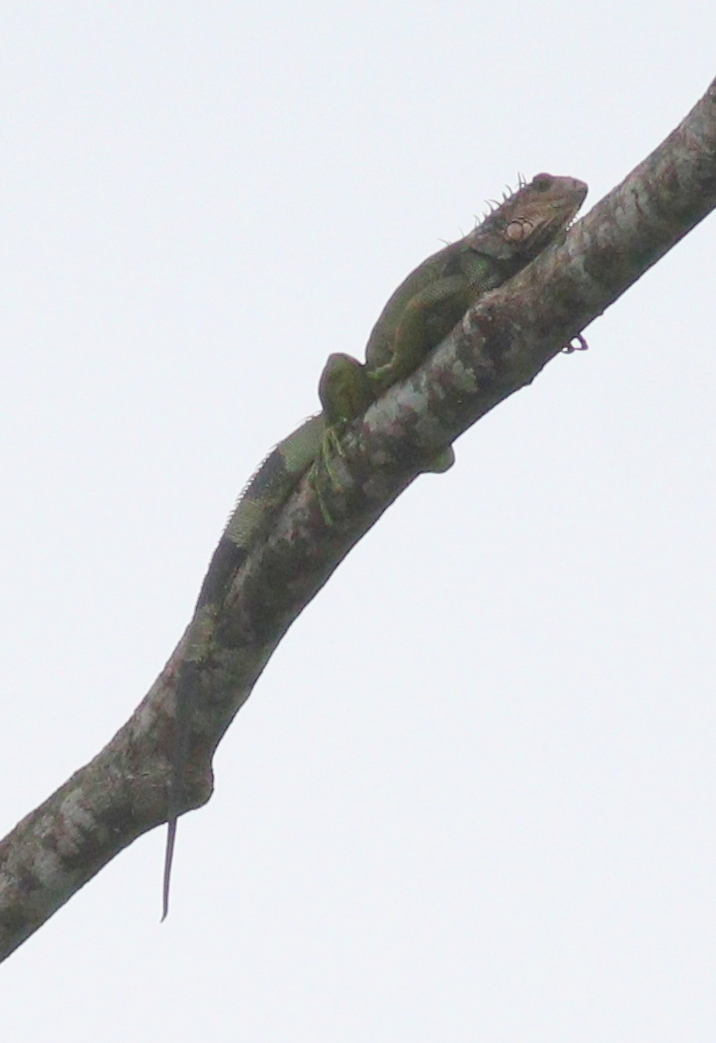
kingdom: Animalia
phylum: Chordata
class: Squamata
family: Iguanidae
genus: Iguana
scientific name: Iguana iguana
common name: Green iguana
